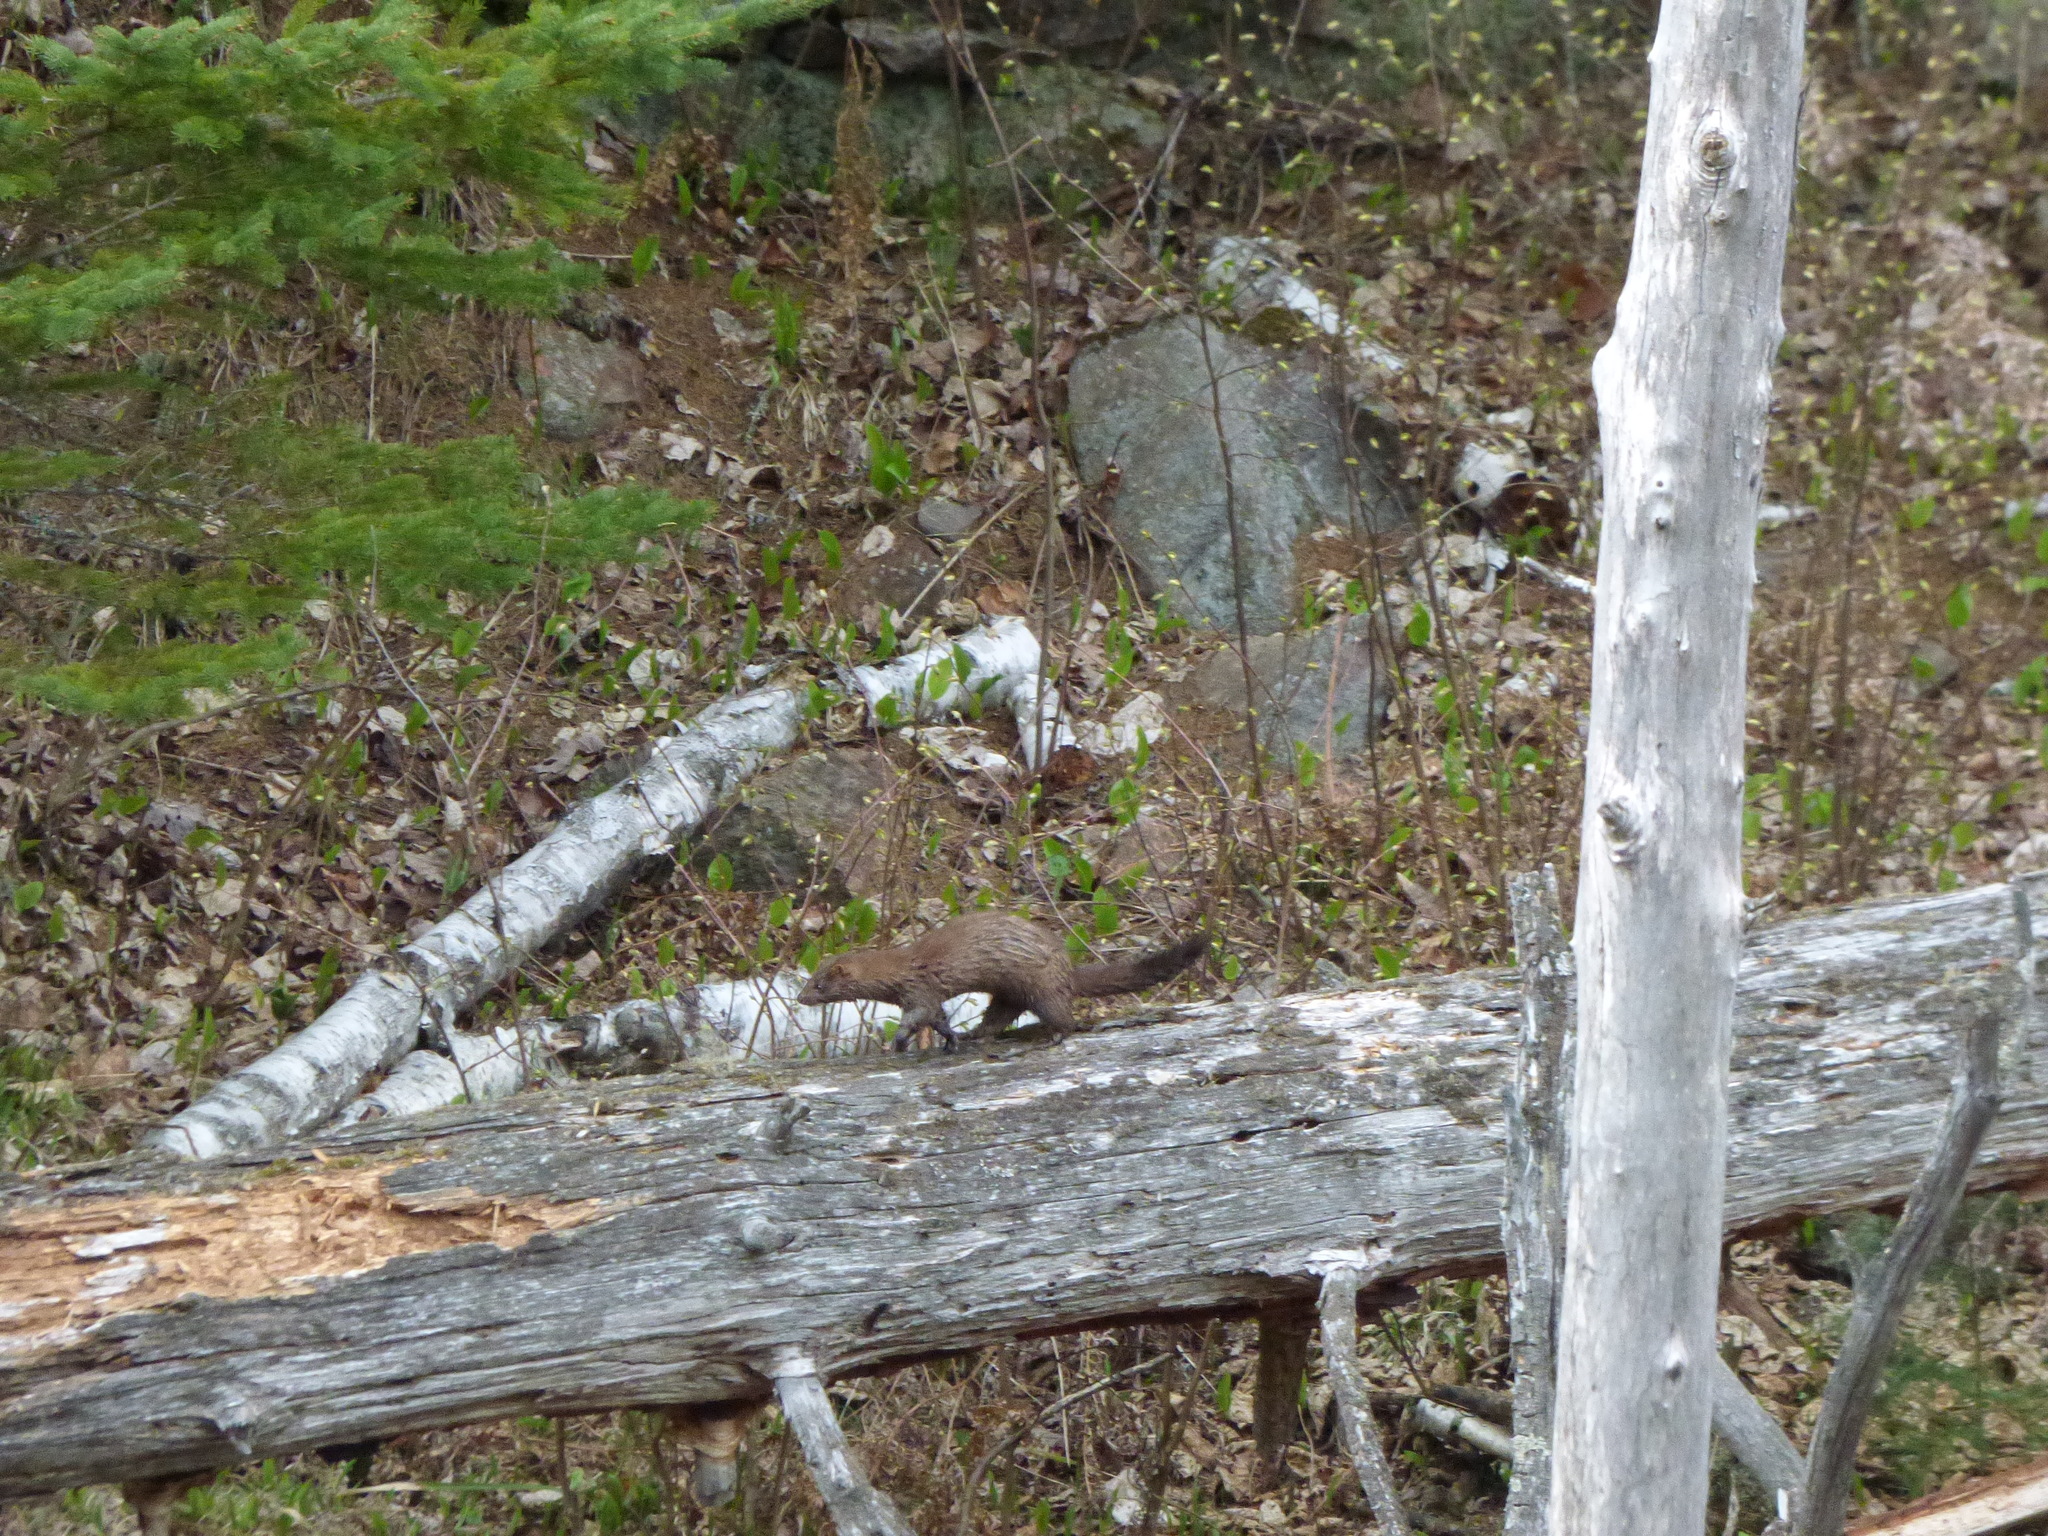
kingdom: Animalia
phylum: Chordata
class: Mammalia
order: Carnivora
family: Mustelidae
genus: Mustela
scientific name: Mustela
